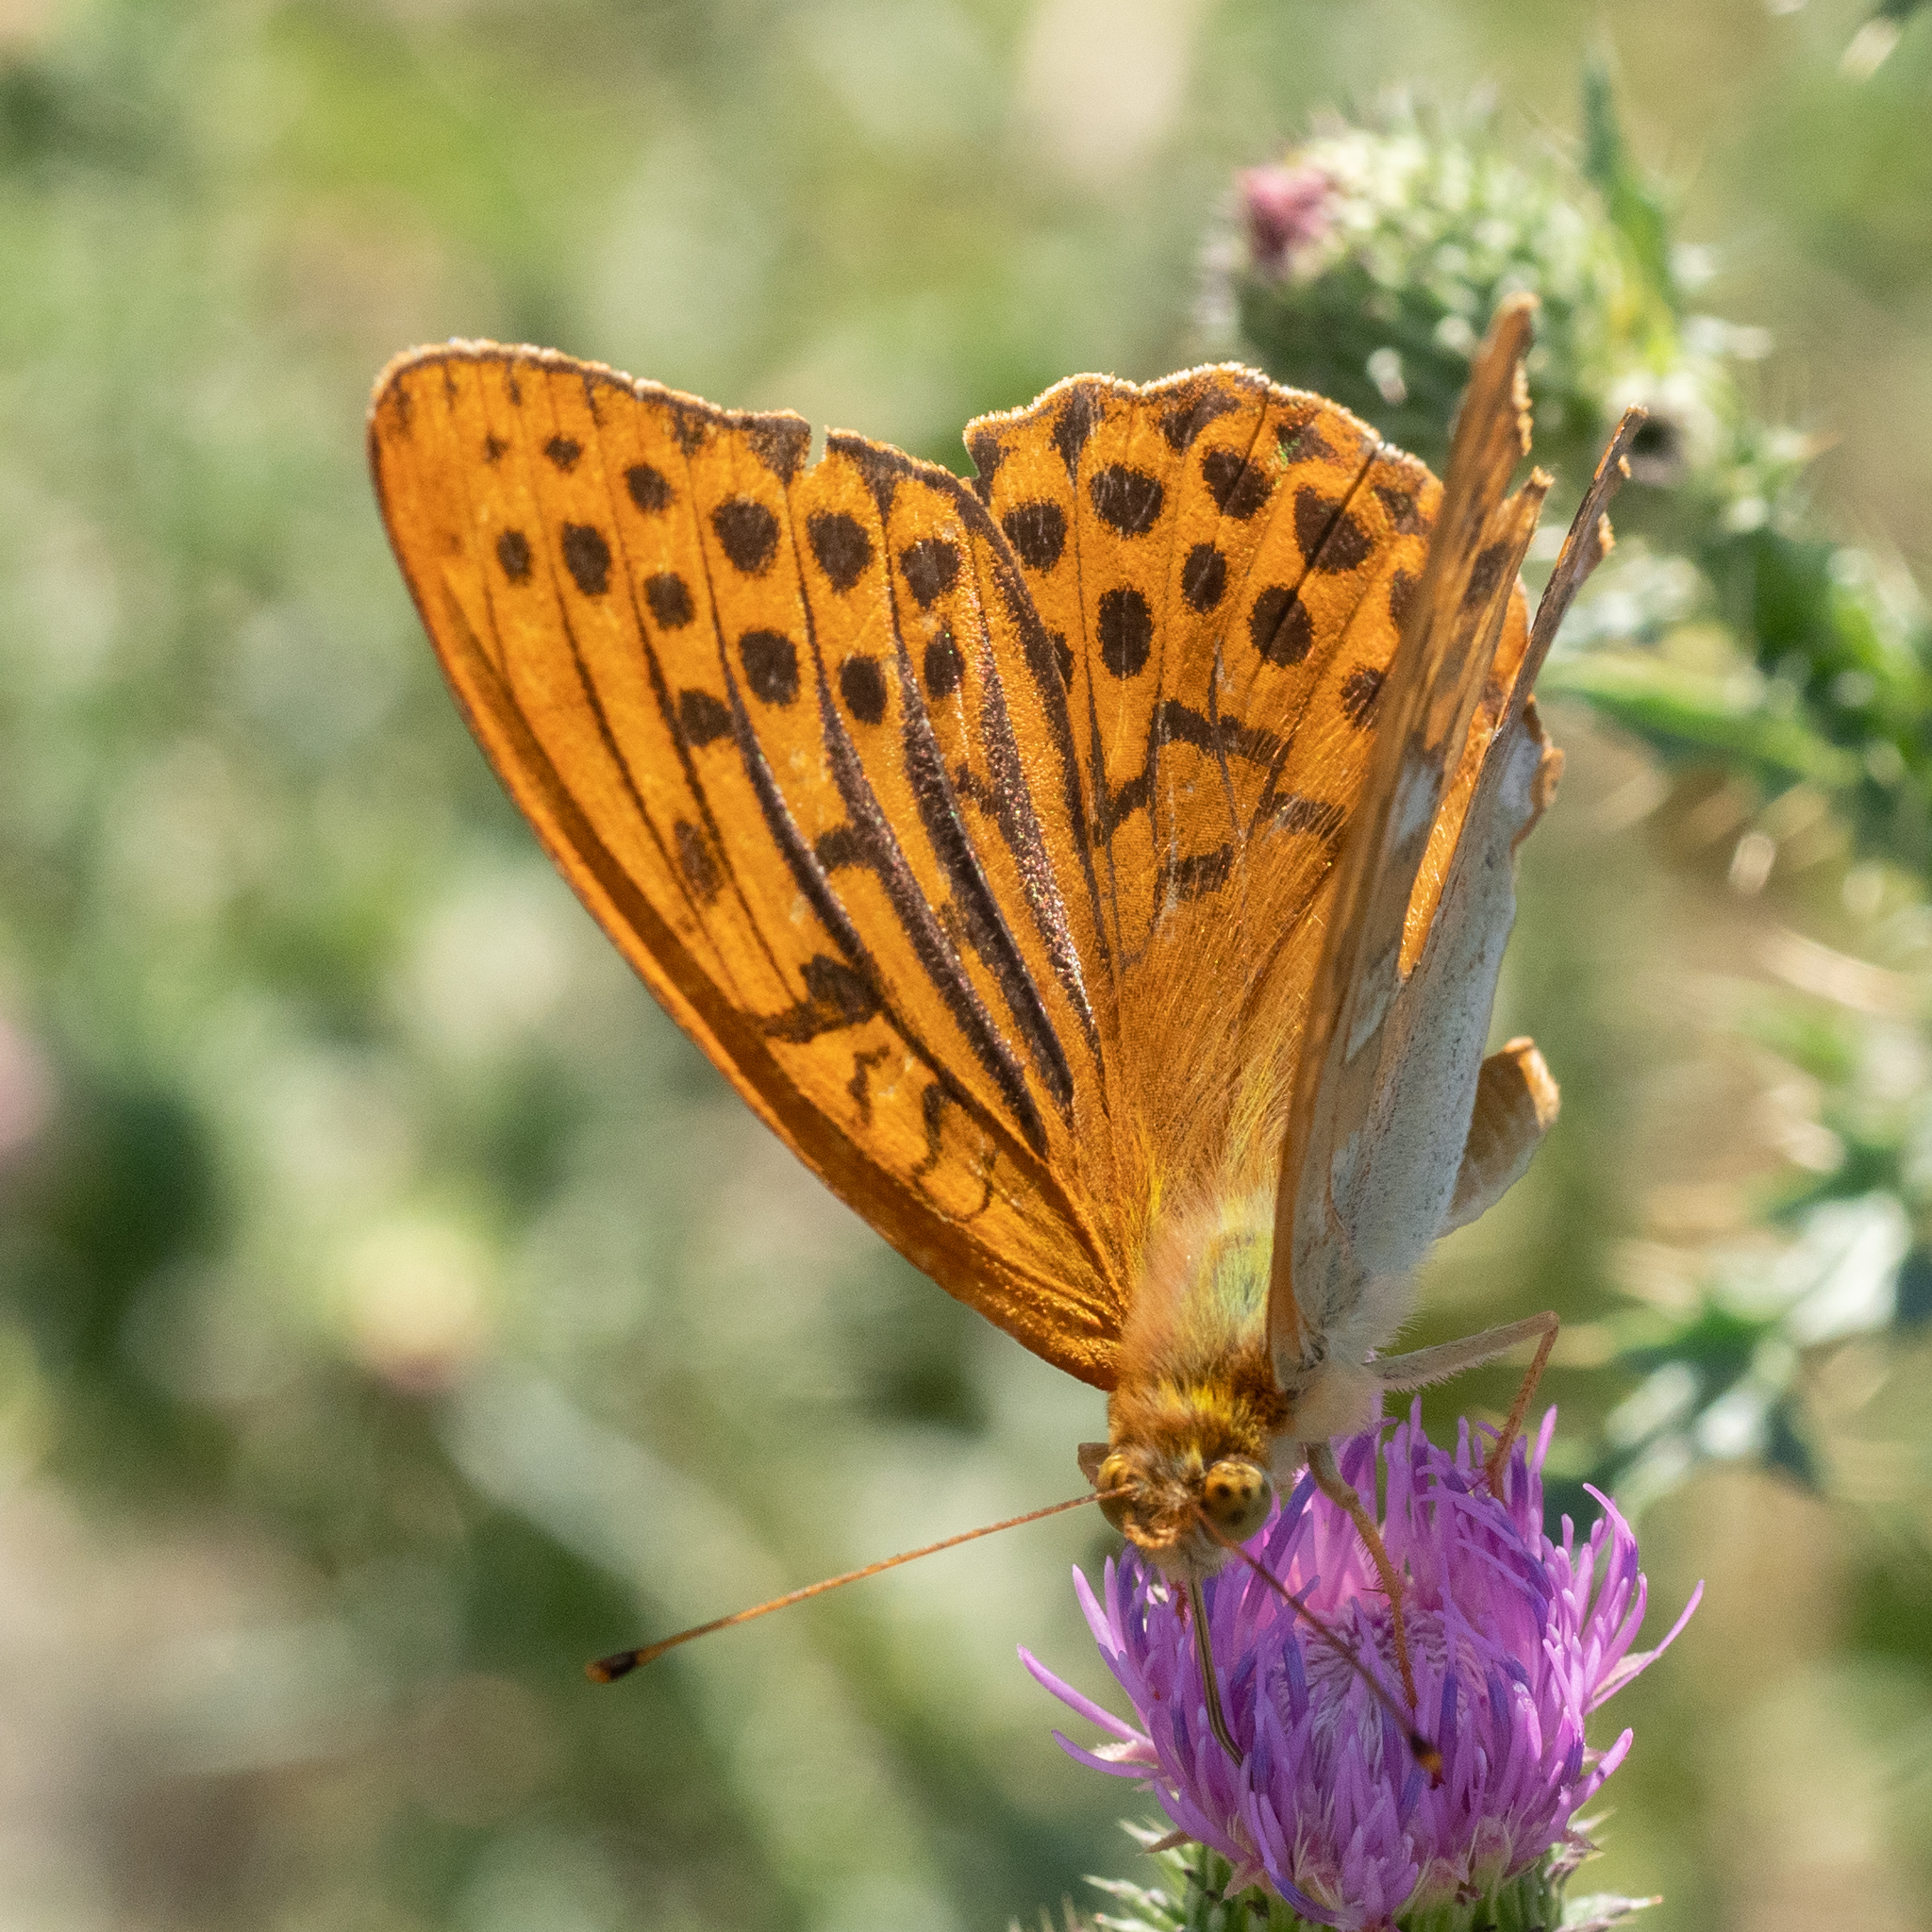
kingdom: Animalia
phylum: Arthropoda
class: Insecta
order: Lepidoptera
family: Nymphalidae
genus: Argynnis
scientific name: Argynnis paphia
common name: Silver-washed fritillary
